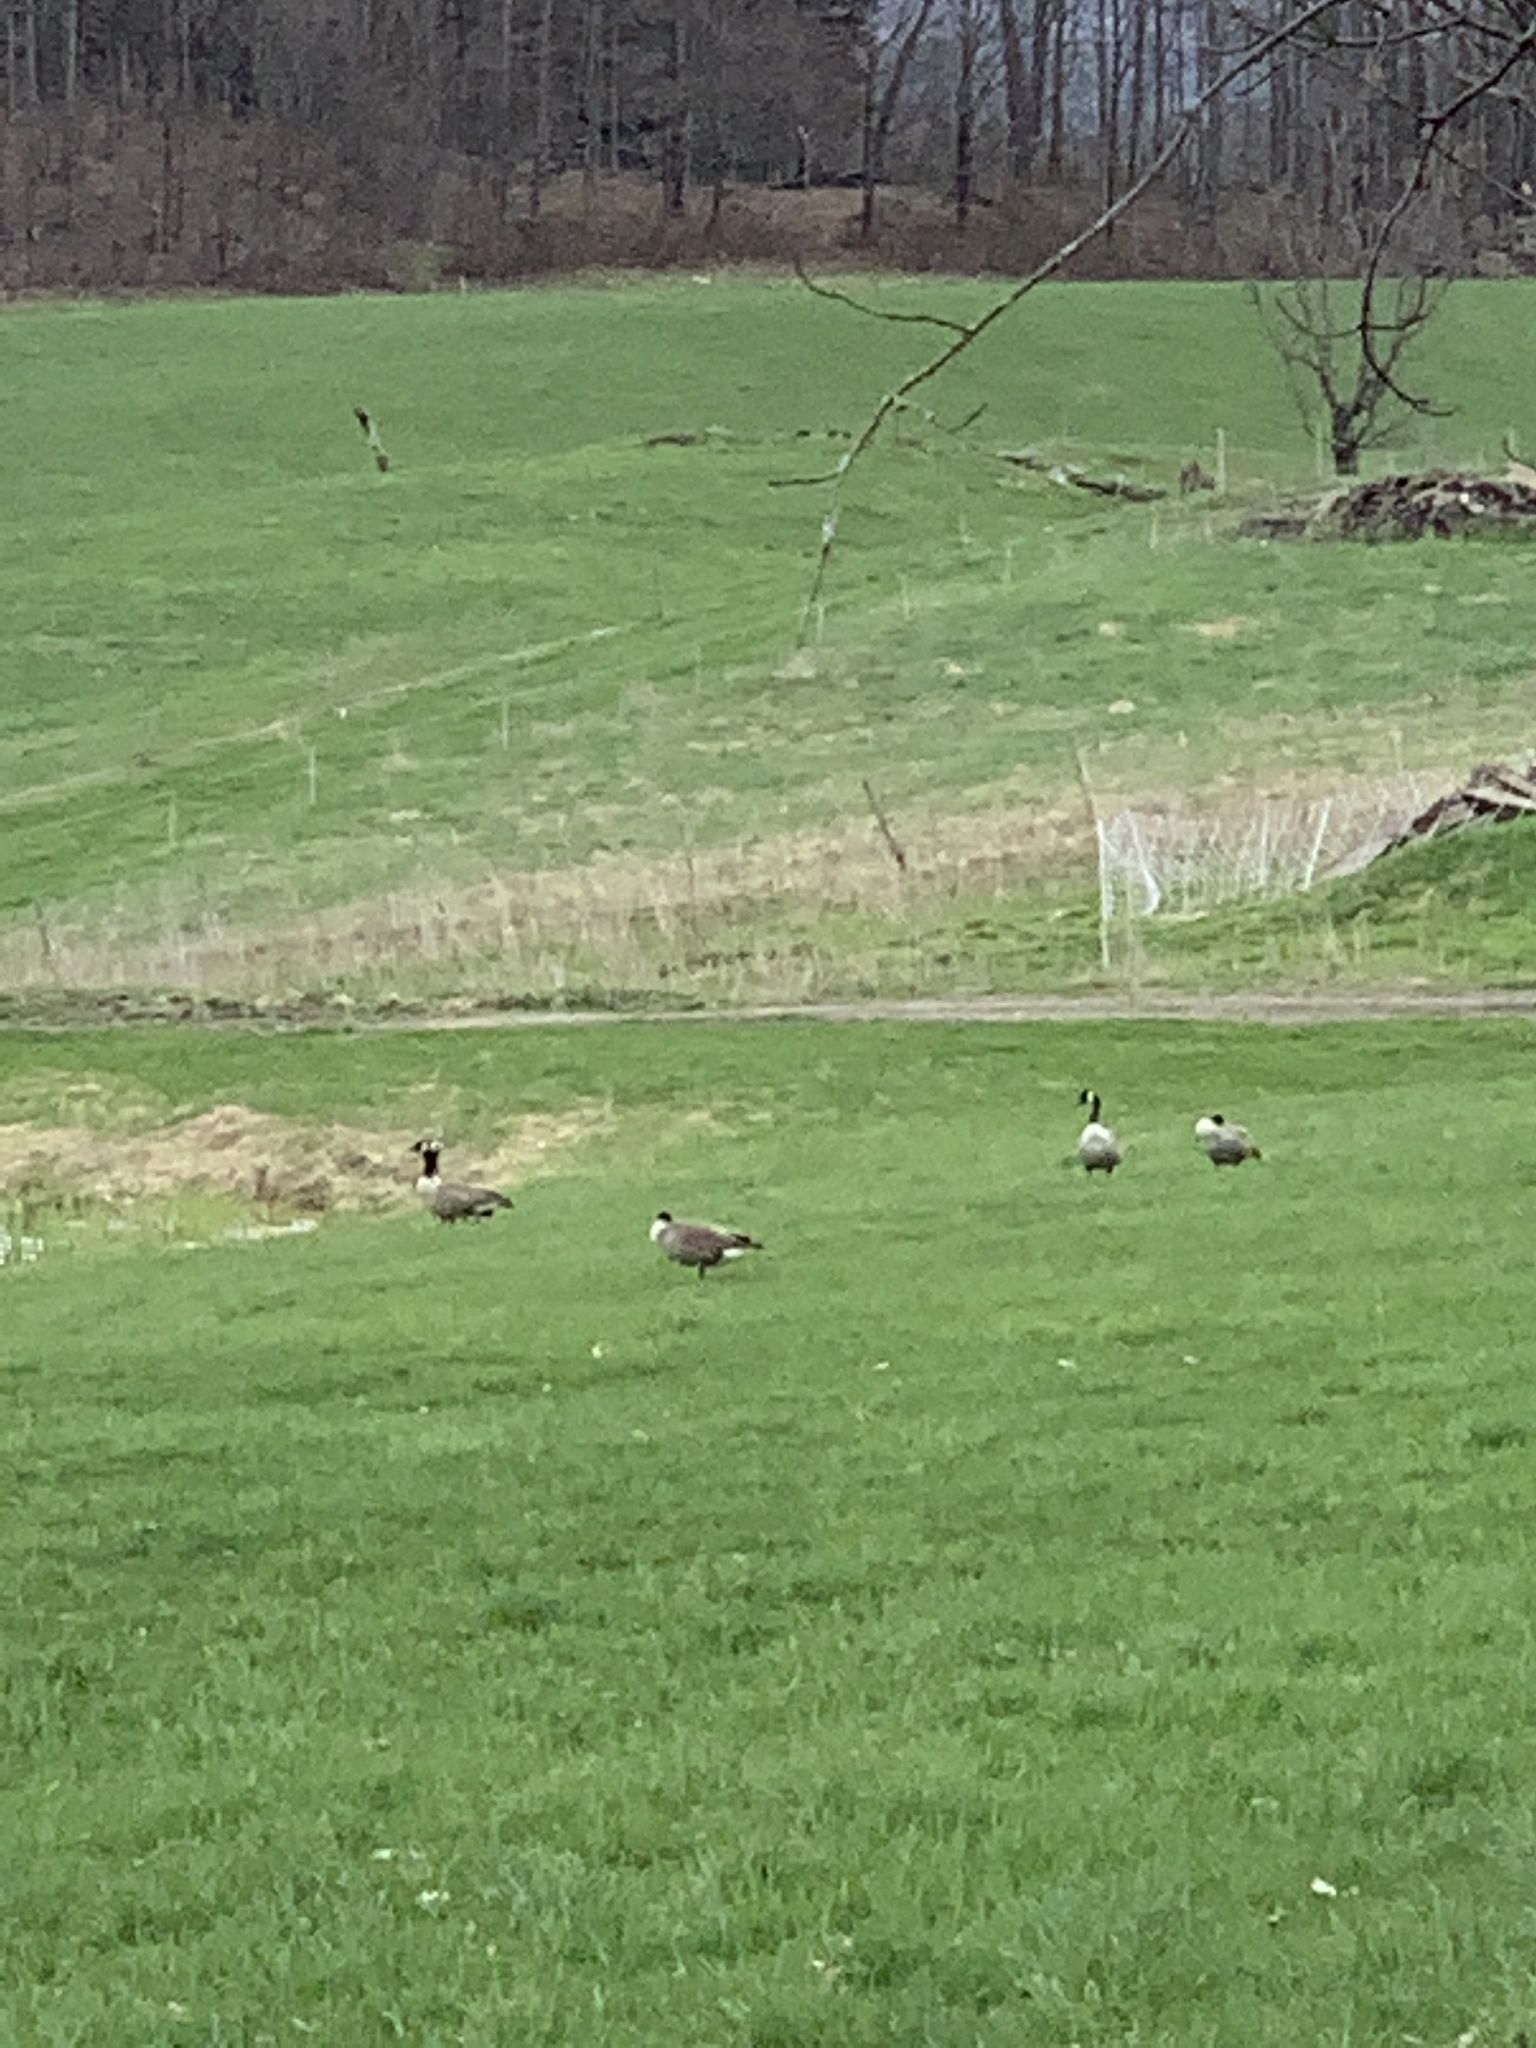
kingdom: Animalia
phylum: Chordata
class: Aves
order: Anseriformes
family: Anatidae
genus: Branta
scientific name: Branta canadensis
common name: Canada goose
